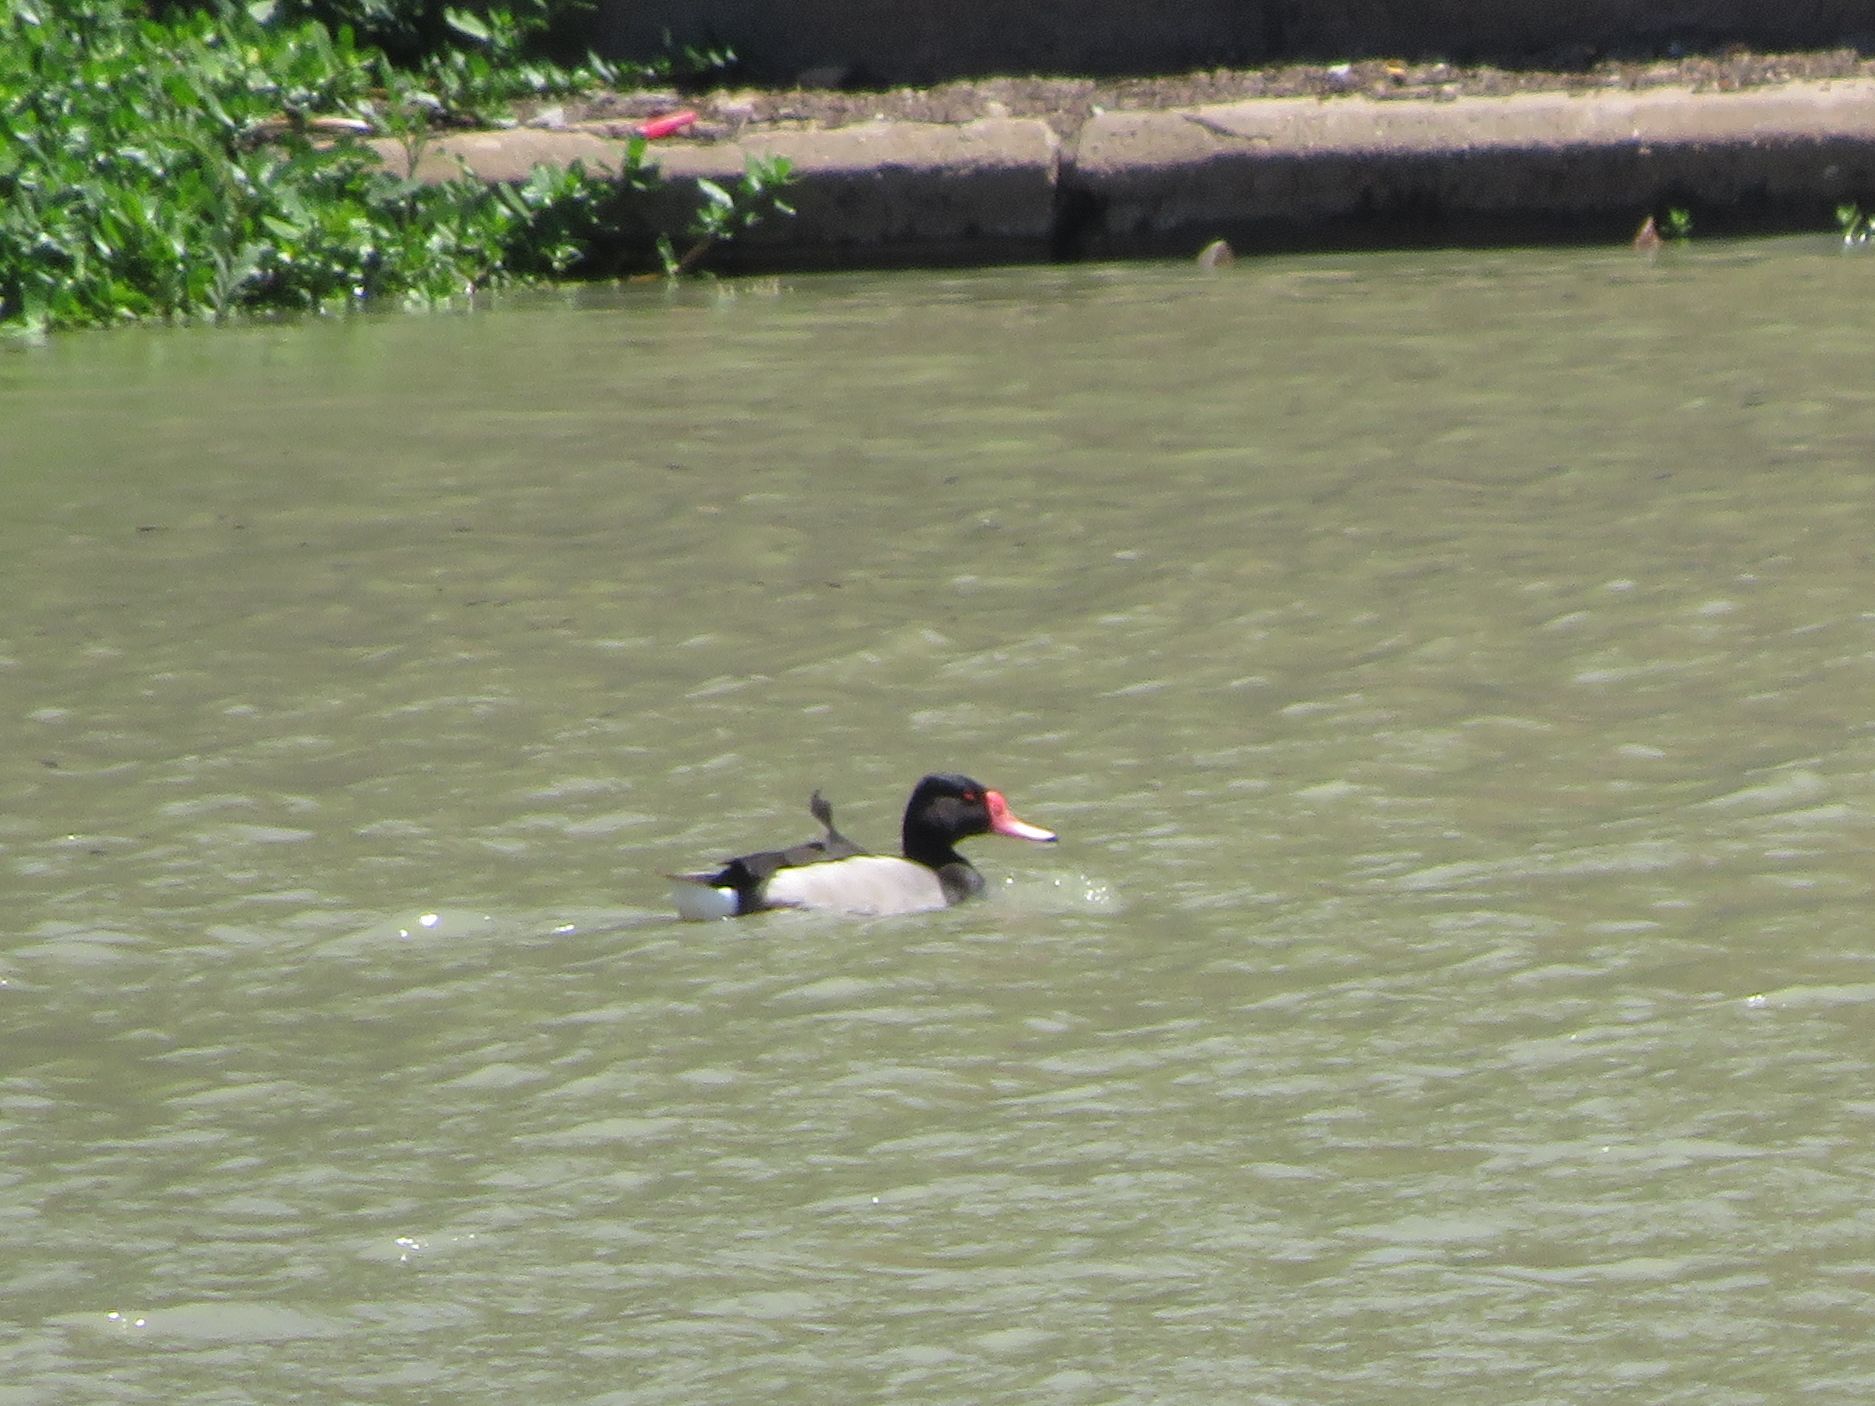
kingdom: Animalia
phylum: Chordata
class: Aves
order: Anseriformes
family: Anatidae
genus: Netta
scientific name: Netta peposaca
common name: Rosy-billed pochard
